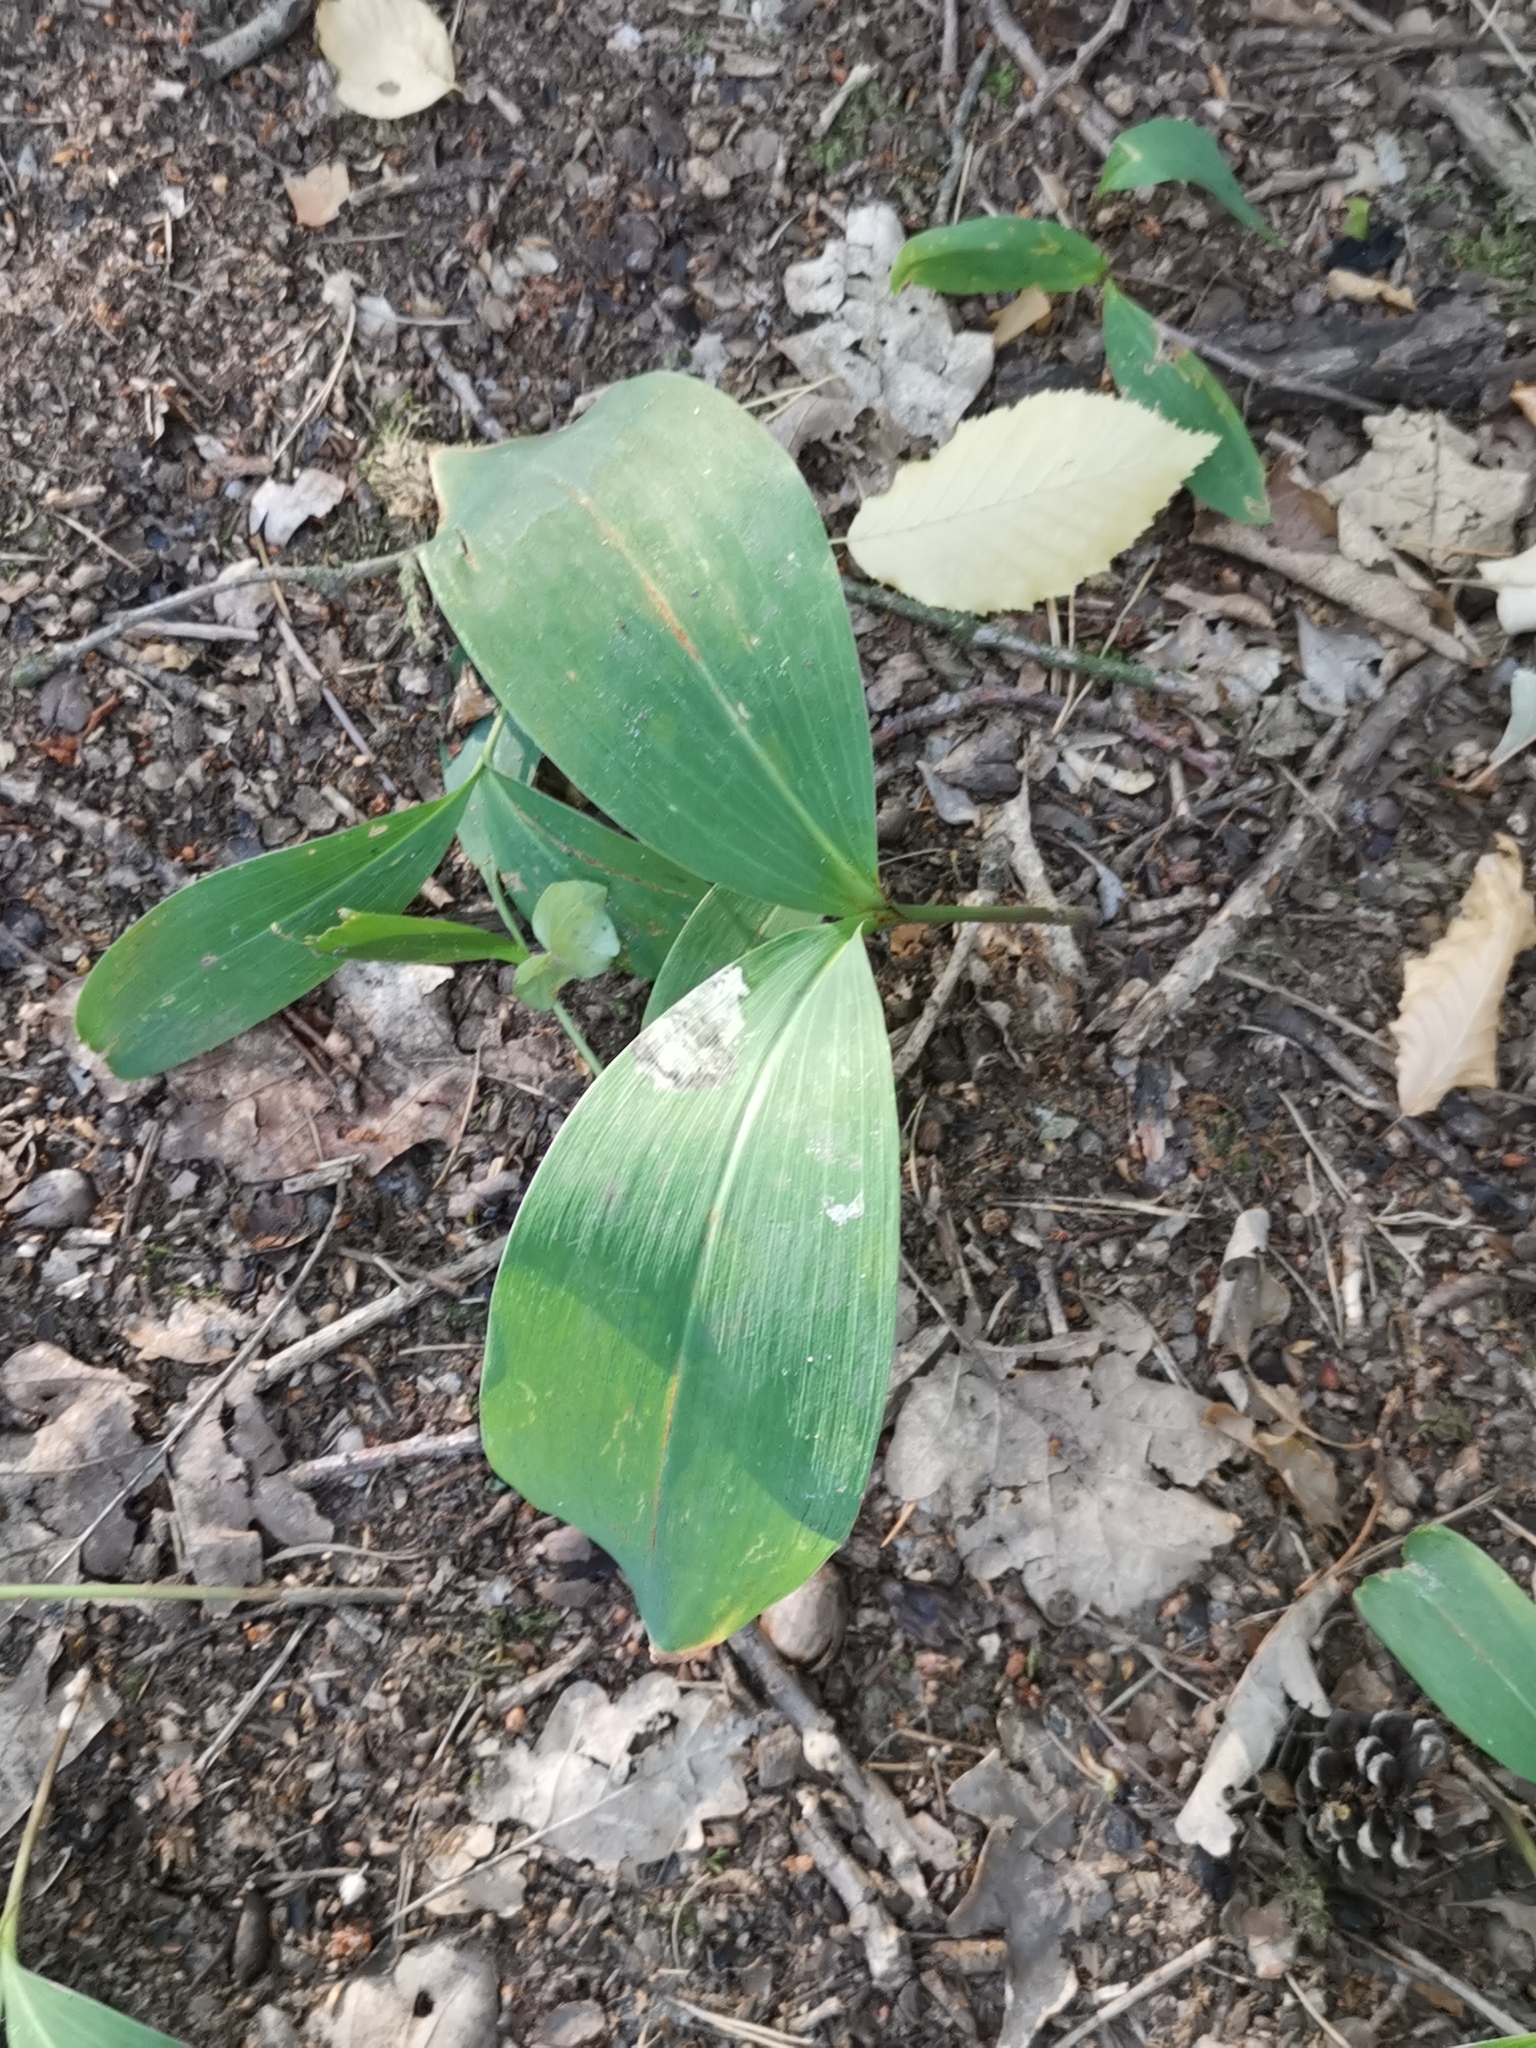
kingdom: Plantae
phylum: Tracheophyta
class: Liliopsida
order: Asparagales
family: Asparagaceae
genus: Convallaria
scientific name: Convallaria majalis
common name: Lily-of-the-valley
